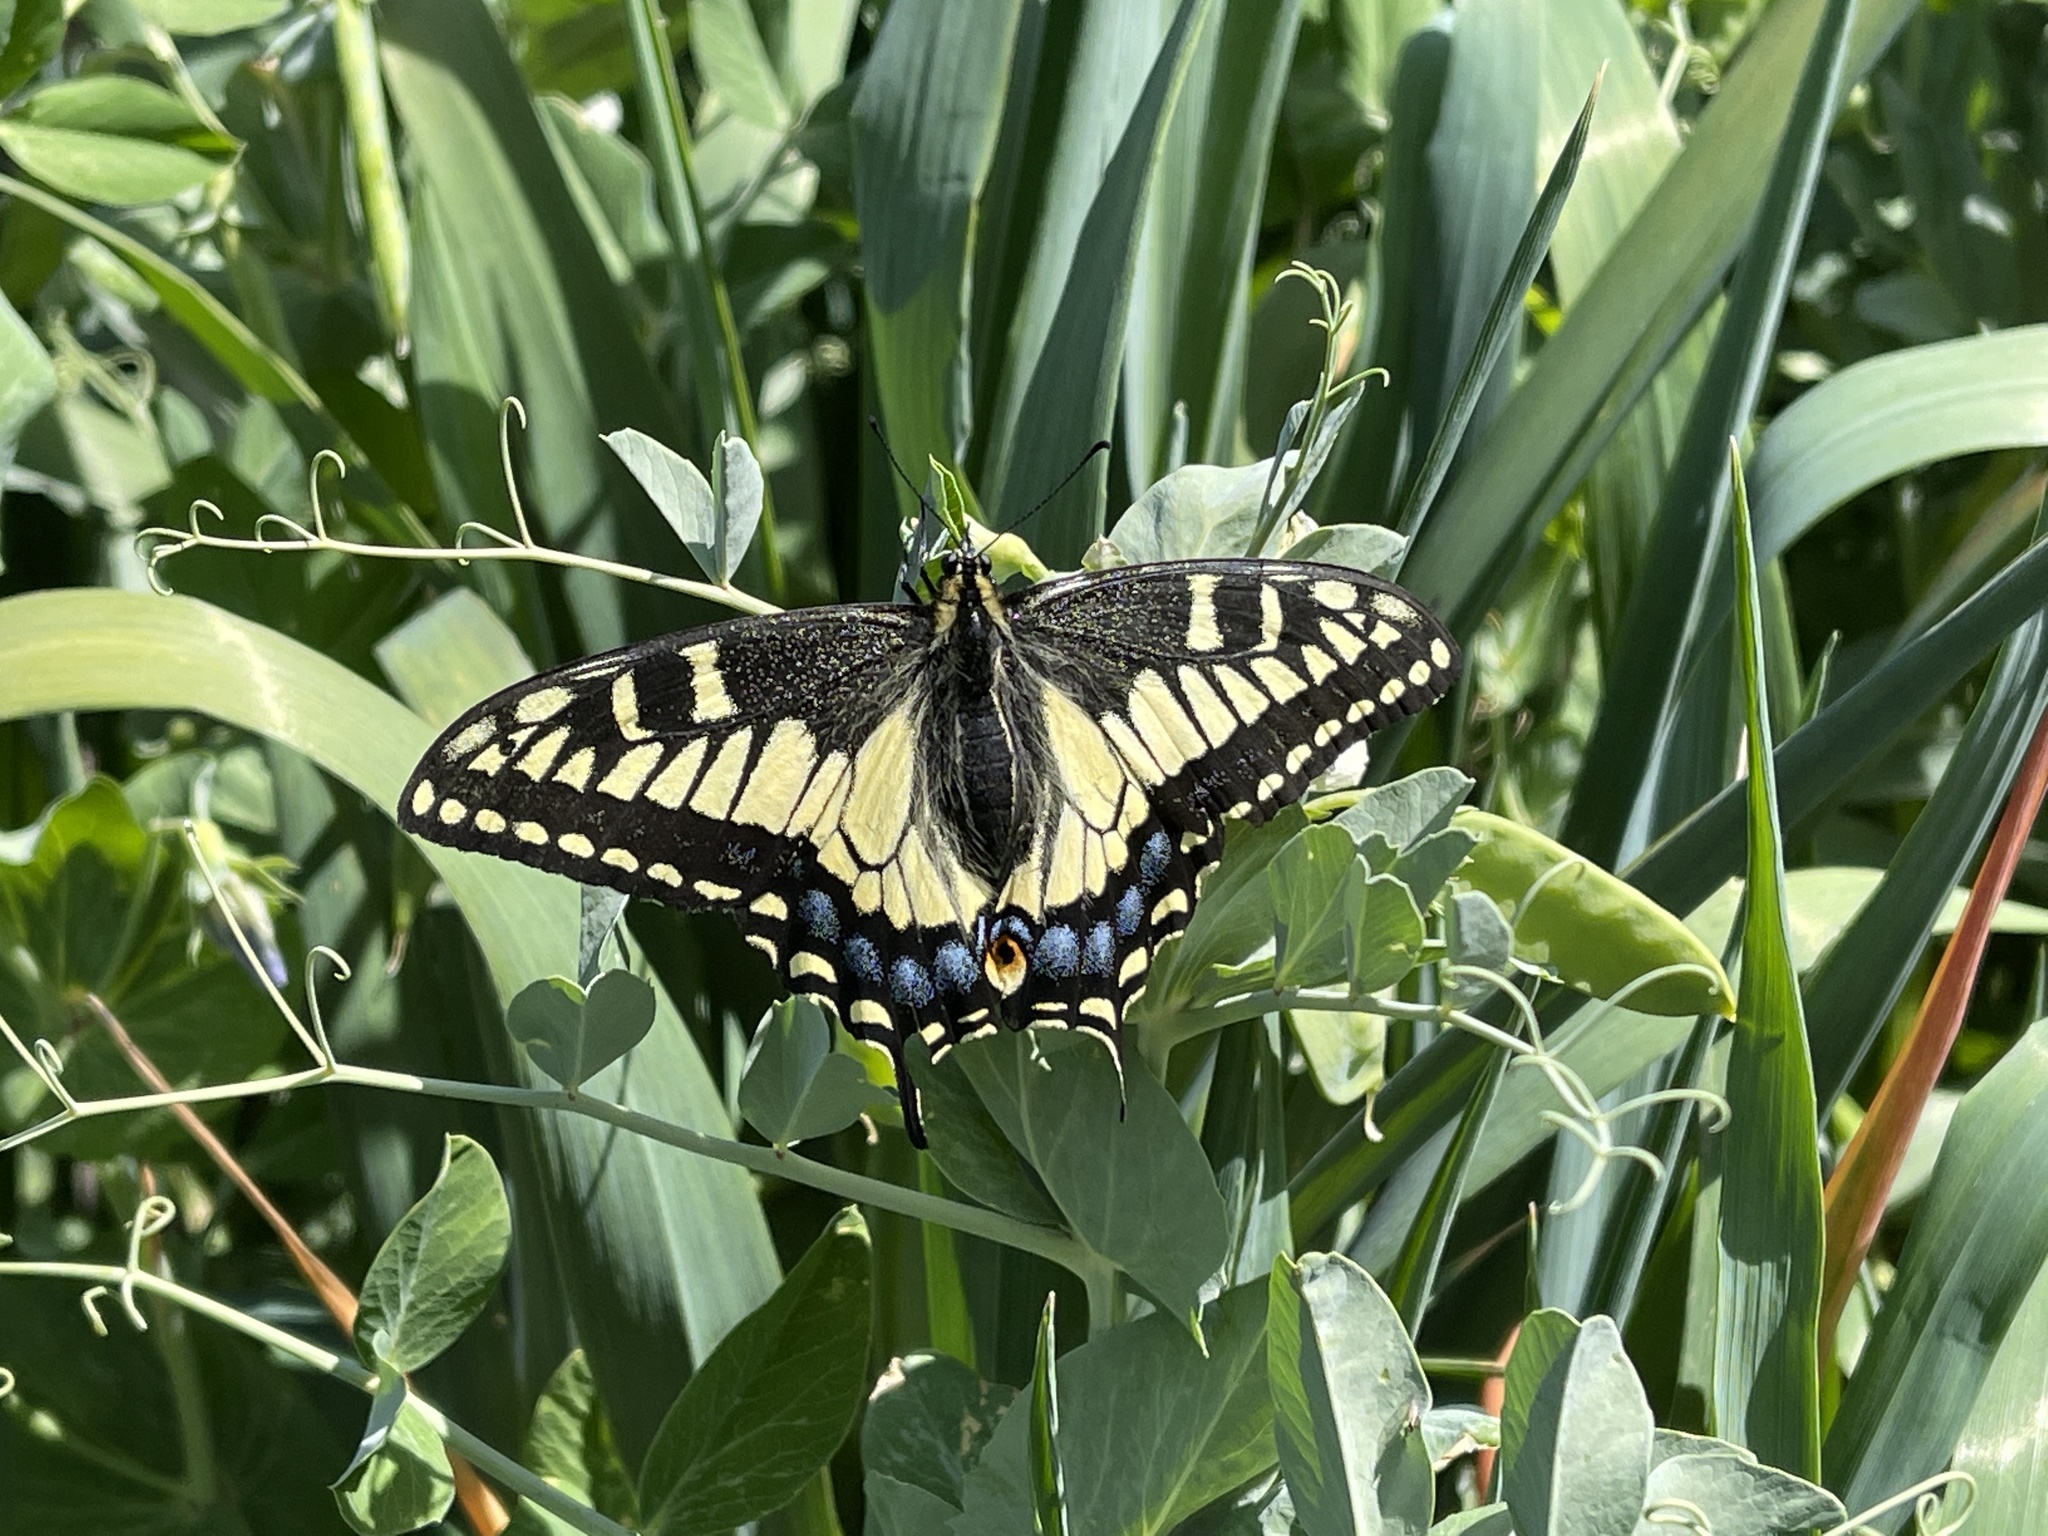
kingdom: Animalia
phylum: Arthropoda
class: Insecta
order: Lepidoptera
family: Papilionidae
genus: Papilio
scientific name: Papilio zelicaon
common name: Anise swallowtail
